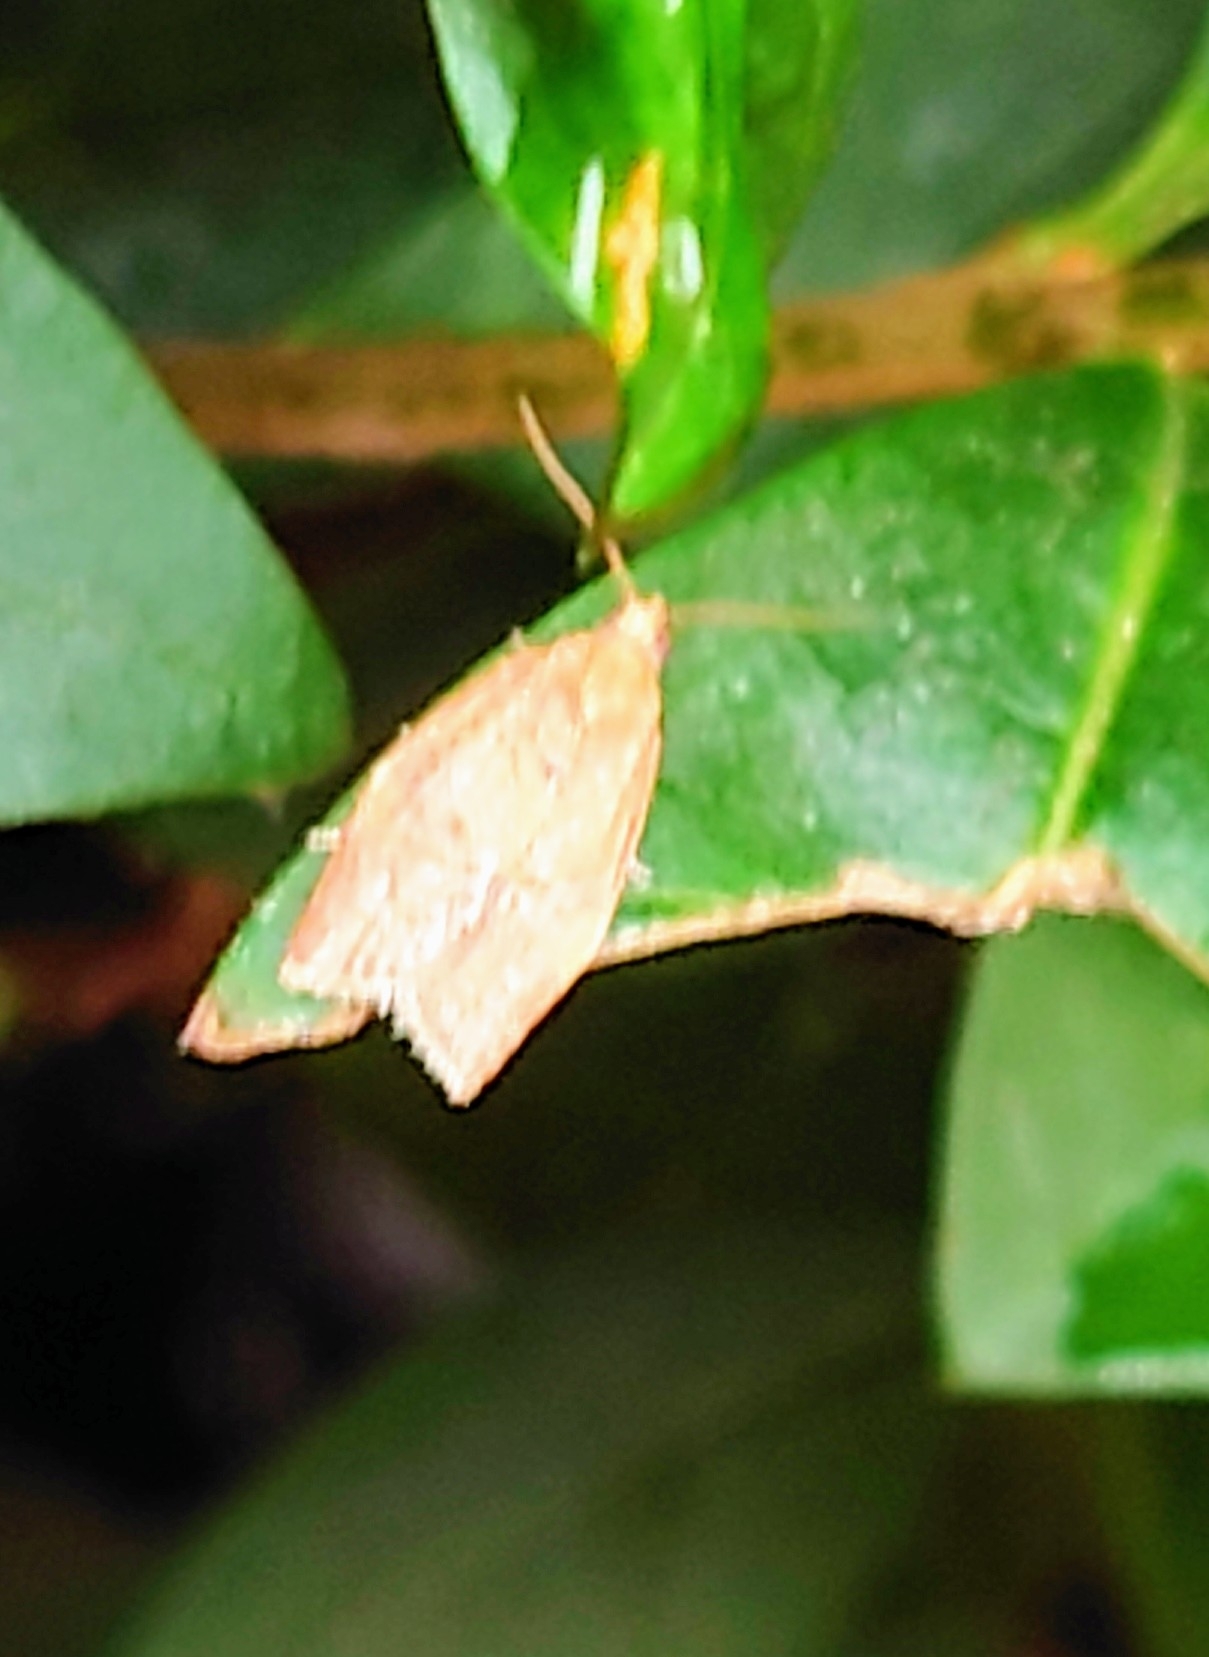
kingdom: Animalia
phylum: Arthropoda
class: Insecta
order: Lepidoptera
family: Tortricidae
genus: Clepsis
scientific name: Clepsis consimilana
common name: Privet tortrix
